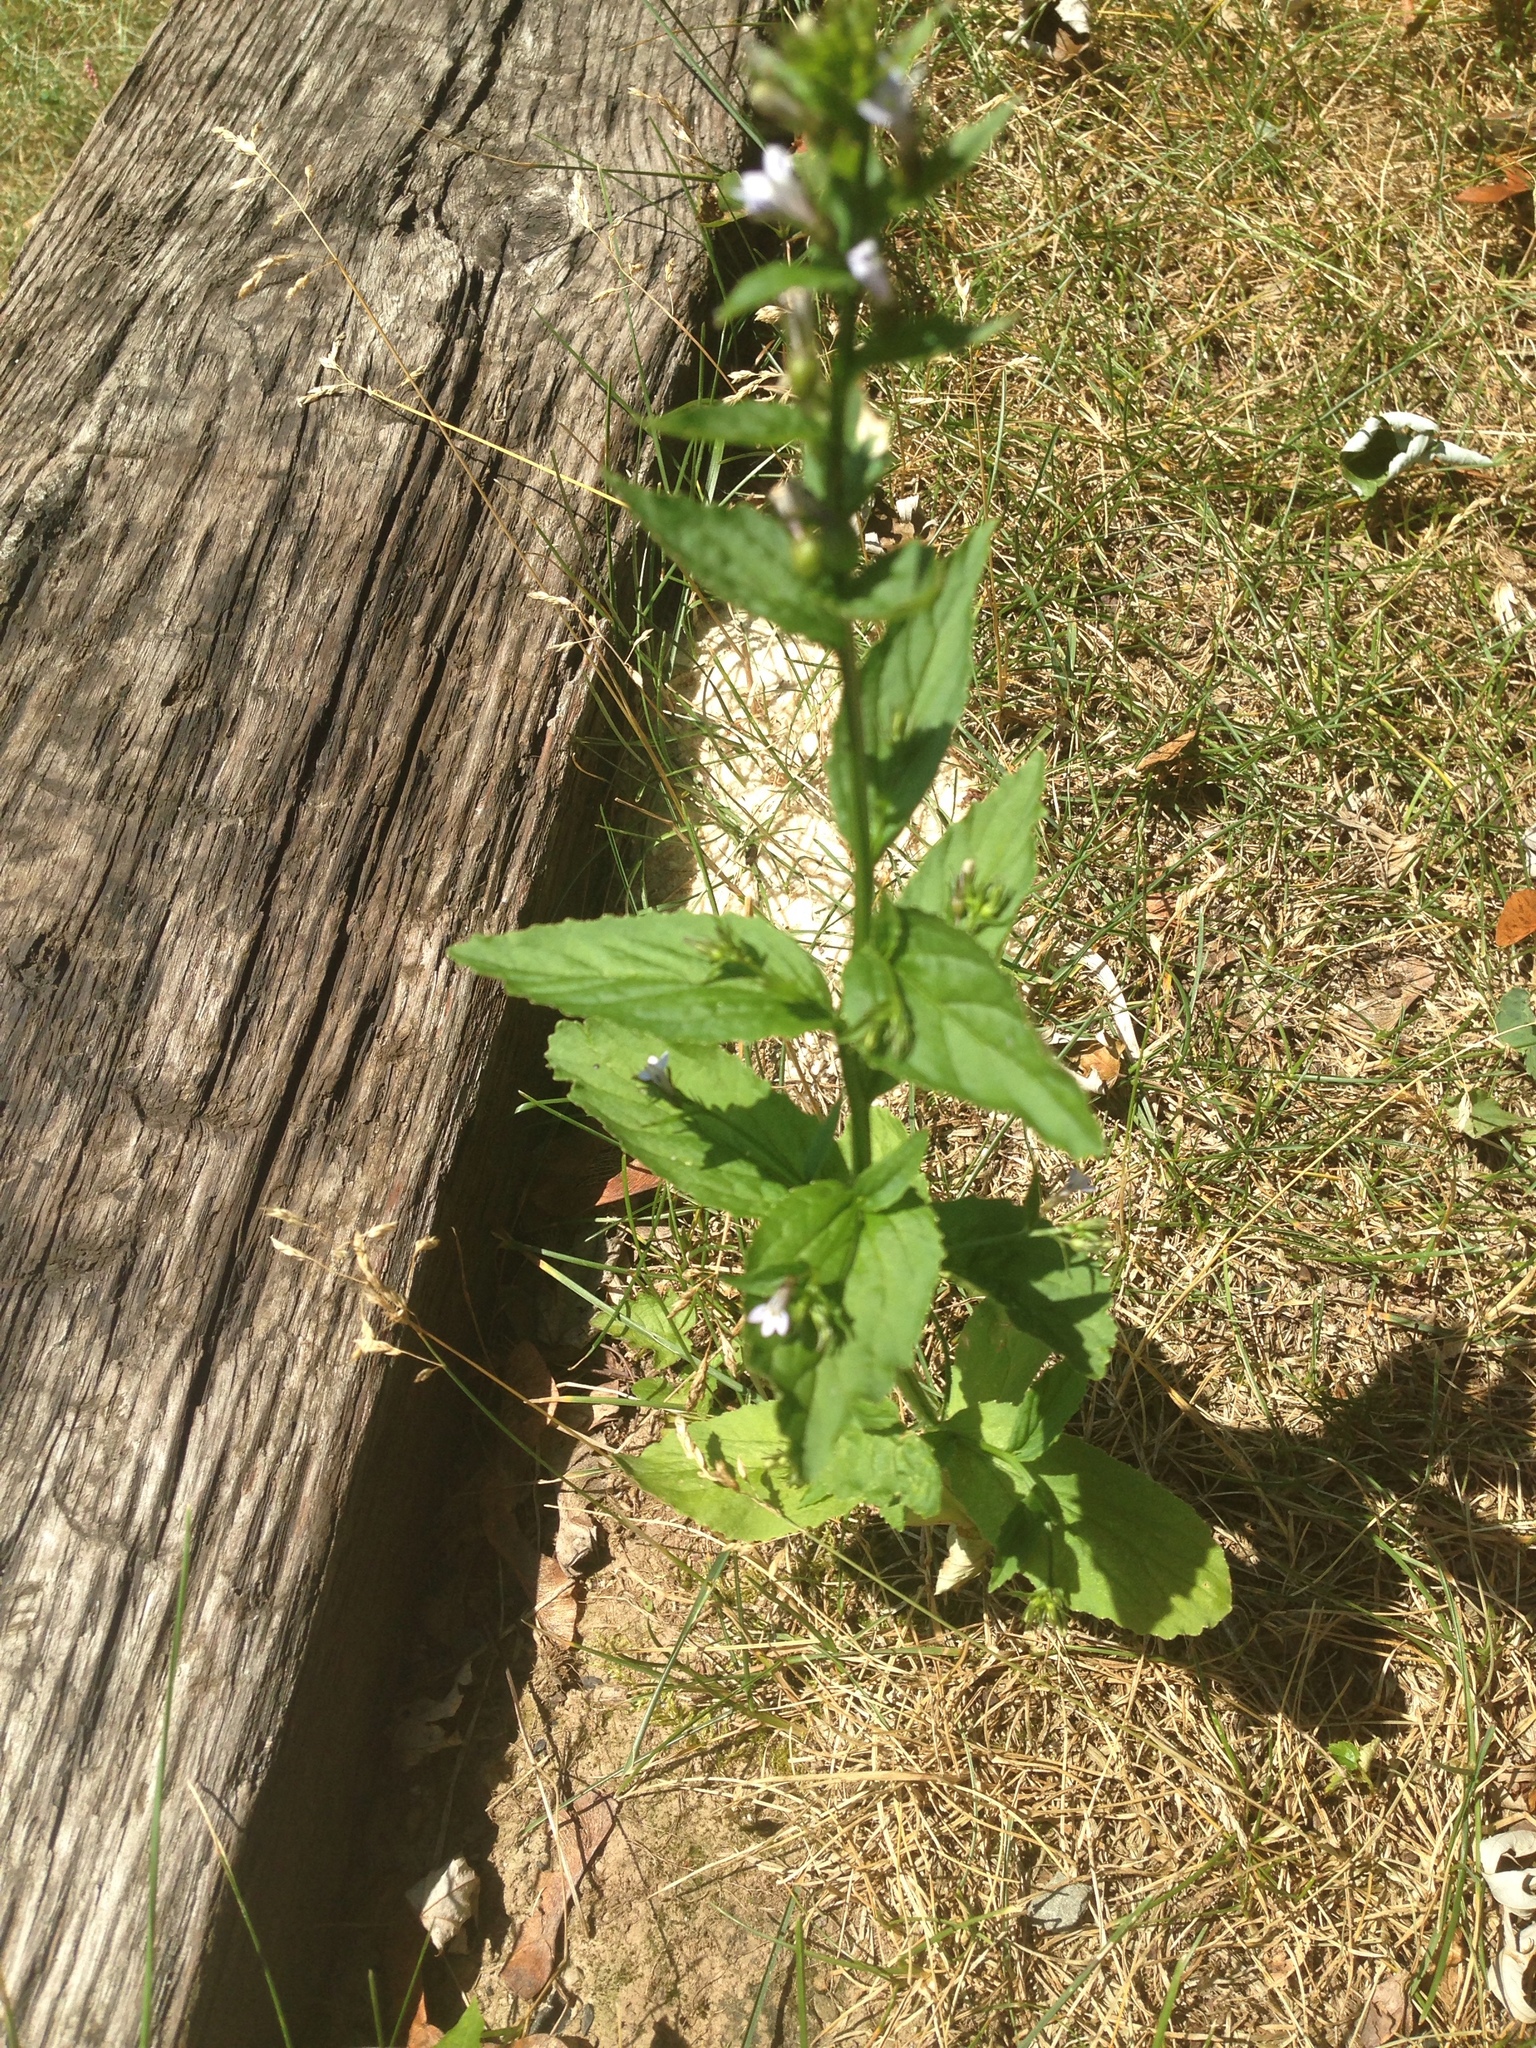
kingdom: Plantae
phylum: Tracheophyta
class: Magnoliopsida
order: Asterales
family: Campanulaceae
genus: Lobelia
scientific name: Lobelia inflata
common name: Indian tobacco
